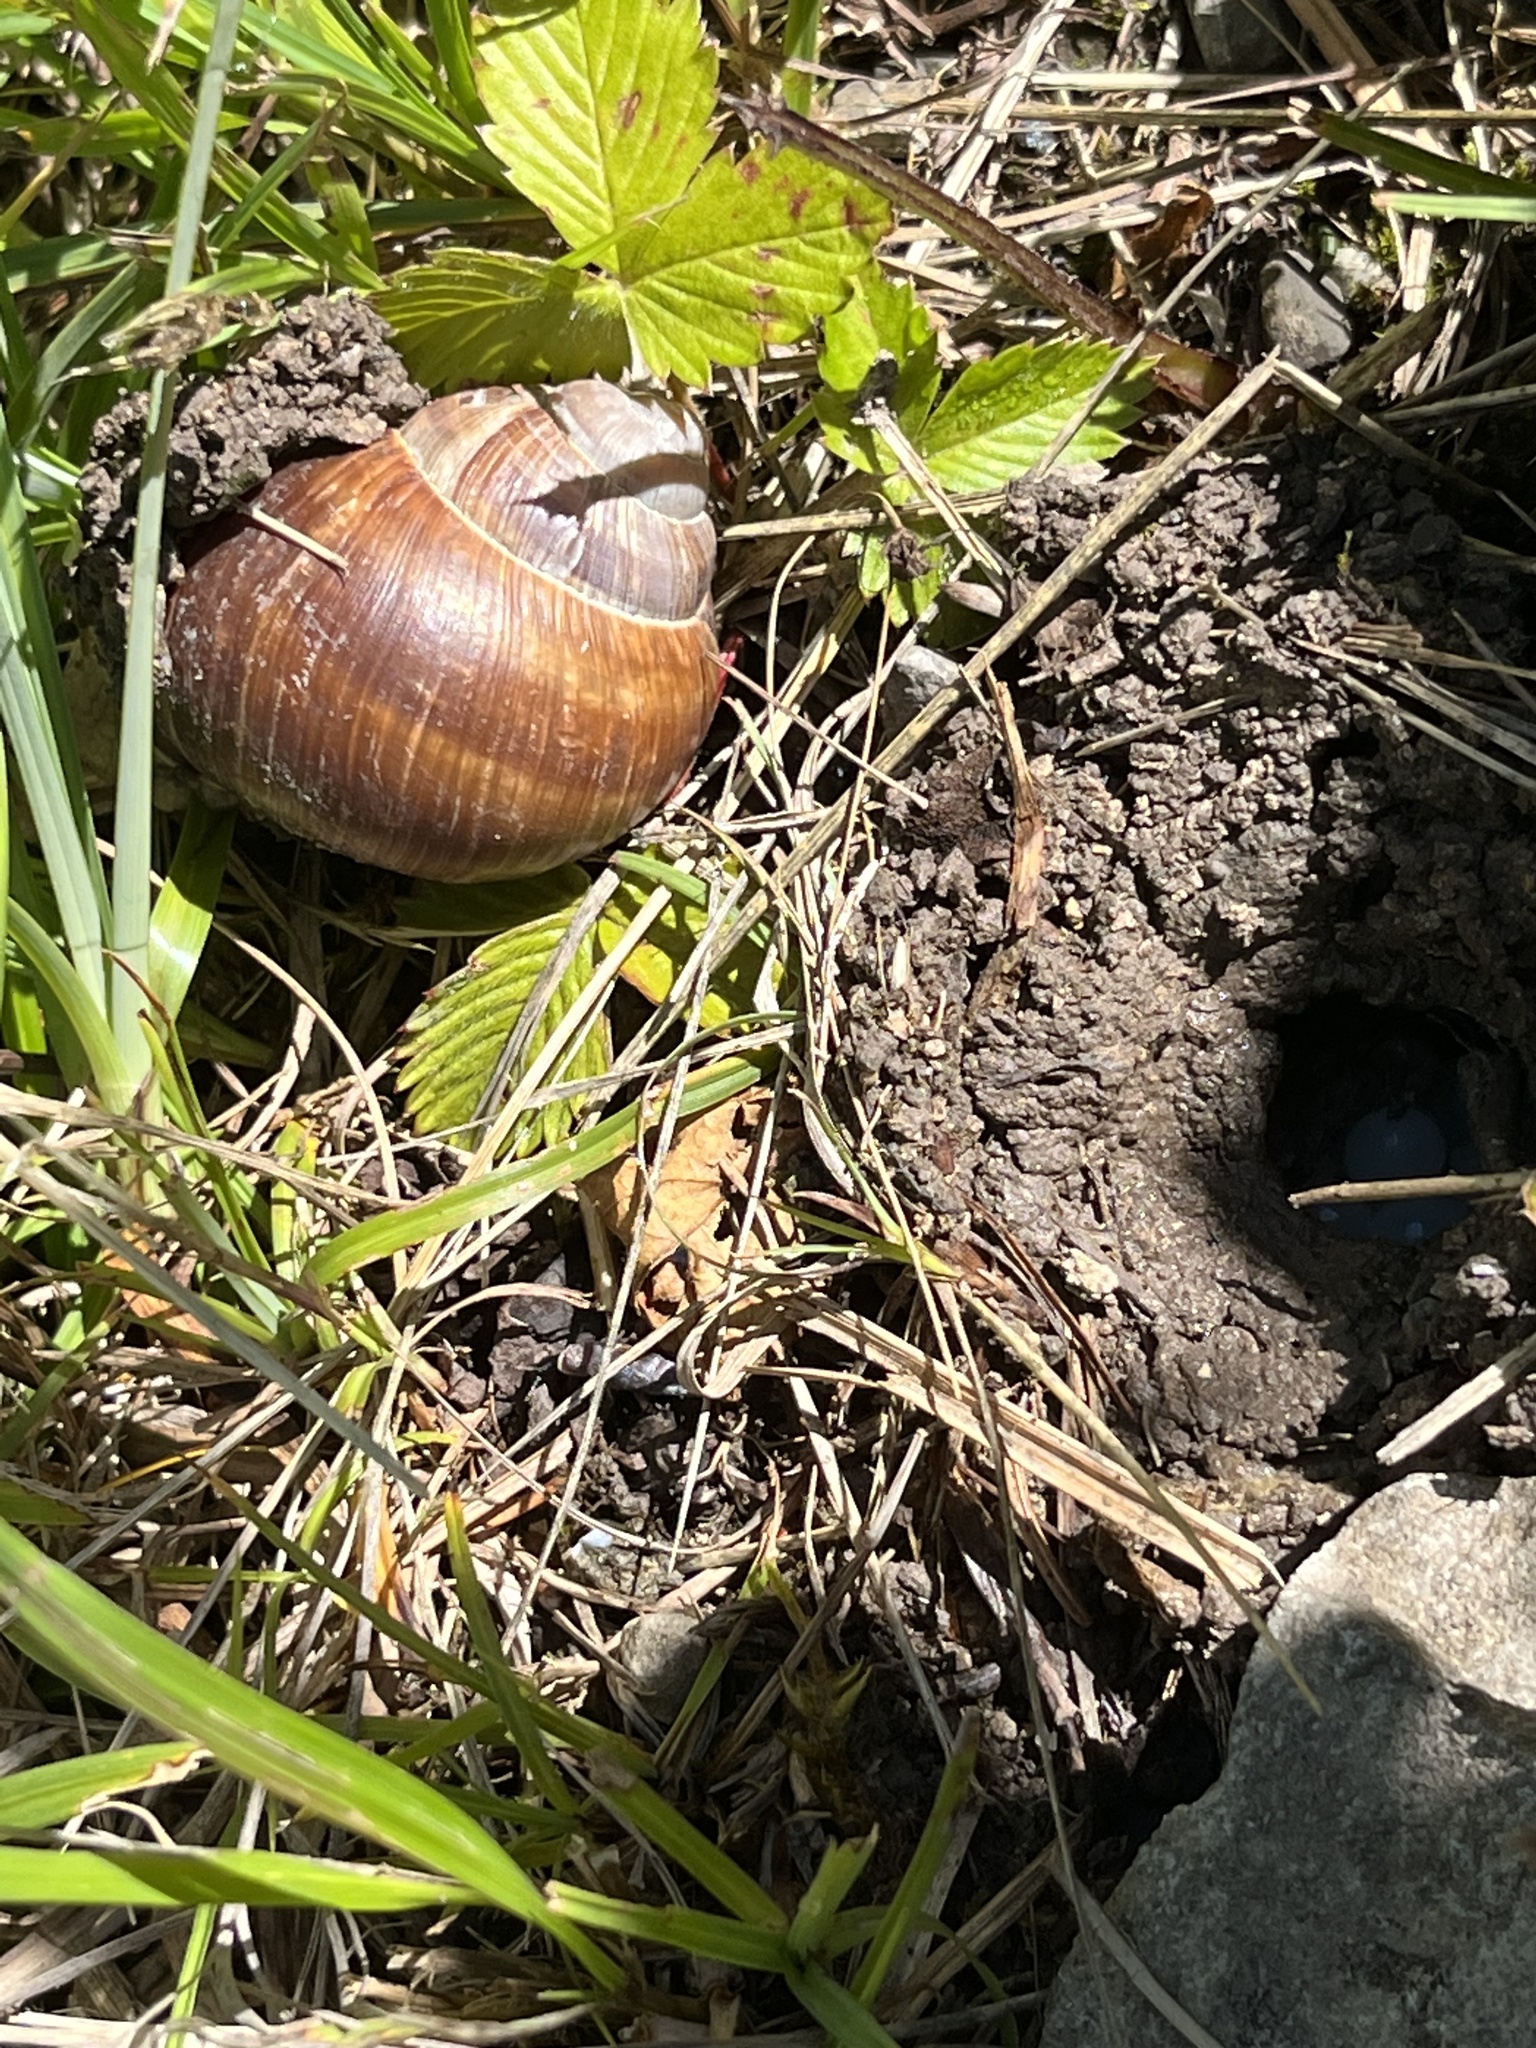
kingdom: Animalia
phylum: Mollusca
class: Gastropoda
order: Stylommatophora
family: Helicidae
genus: Helix
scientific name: Helix pomatia
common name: Roman snail
